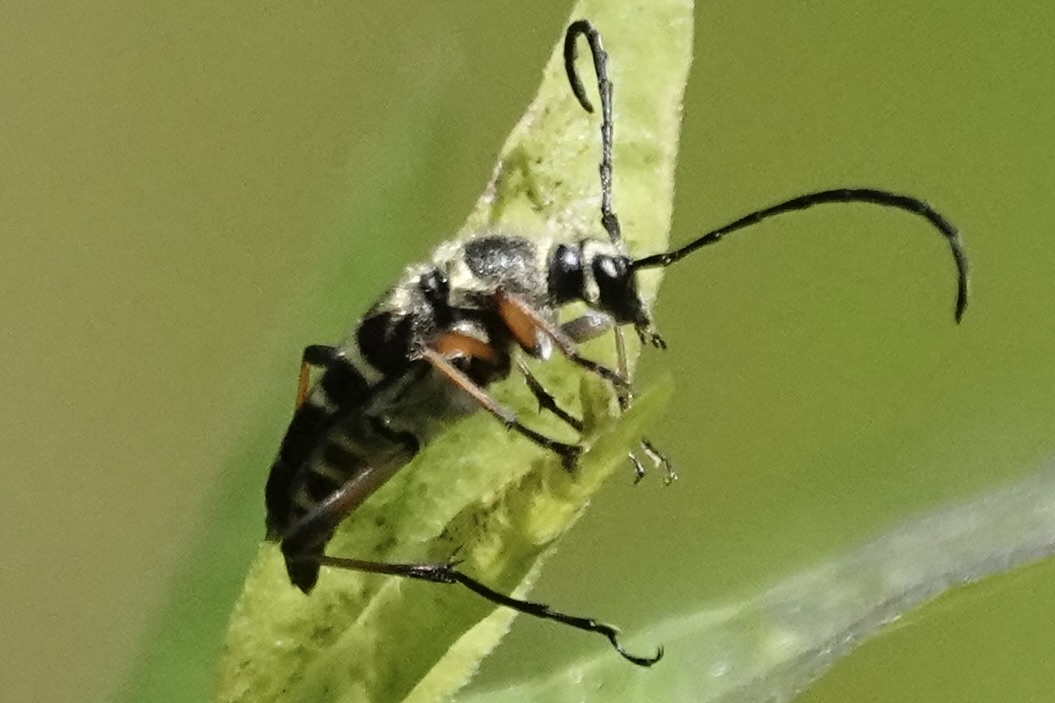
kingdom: Animalia
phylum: Arthropoda
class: Insecta
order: Coleoptera
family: Cerambycidae
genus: Typocerus
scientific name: Typocerus zebra
